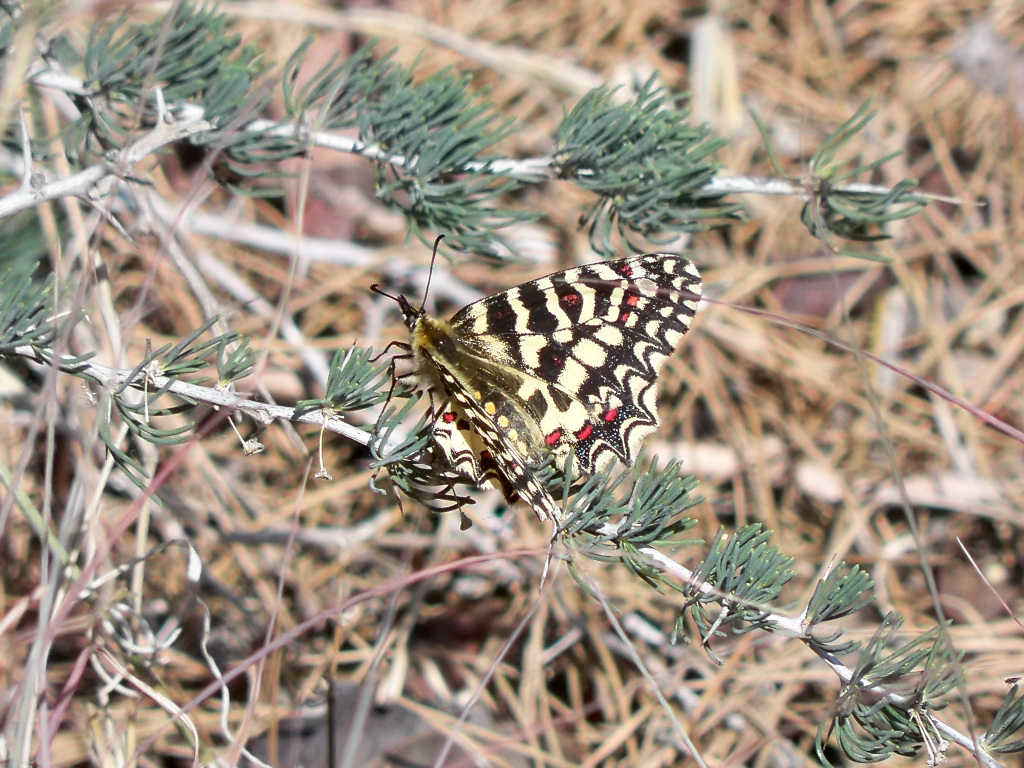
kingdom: Animalia
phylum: Arthropoda
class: Insecta
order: Lepidoptera
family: Papilionidae
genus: Zerynthia
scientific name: Zerynthia rumina
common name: Spanish festoon
